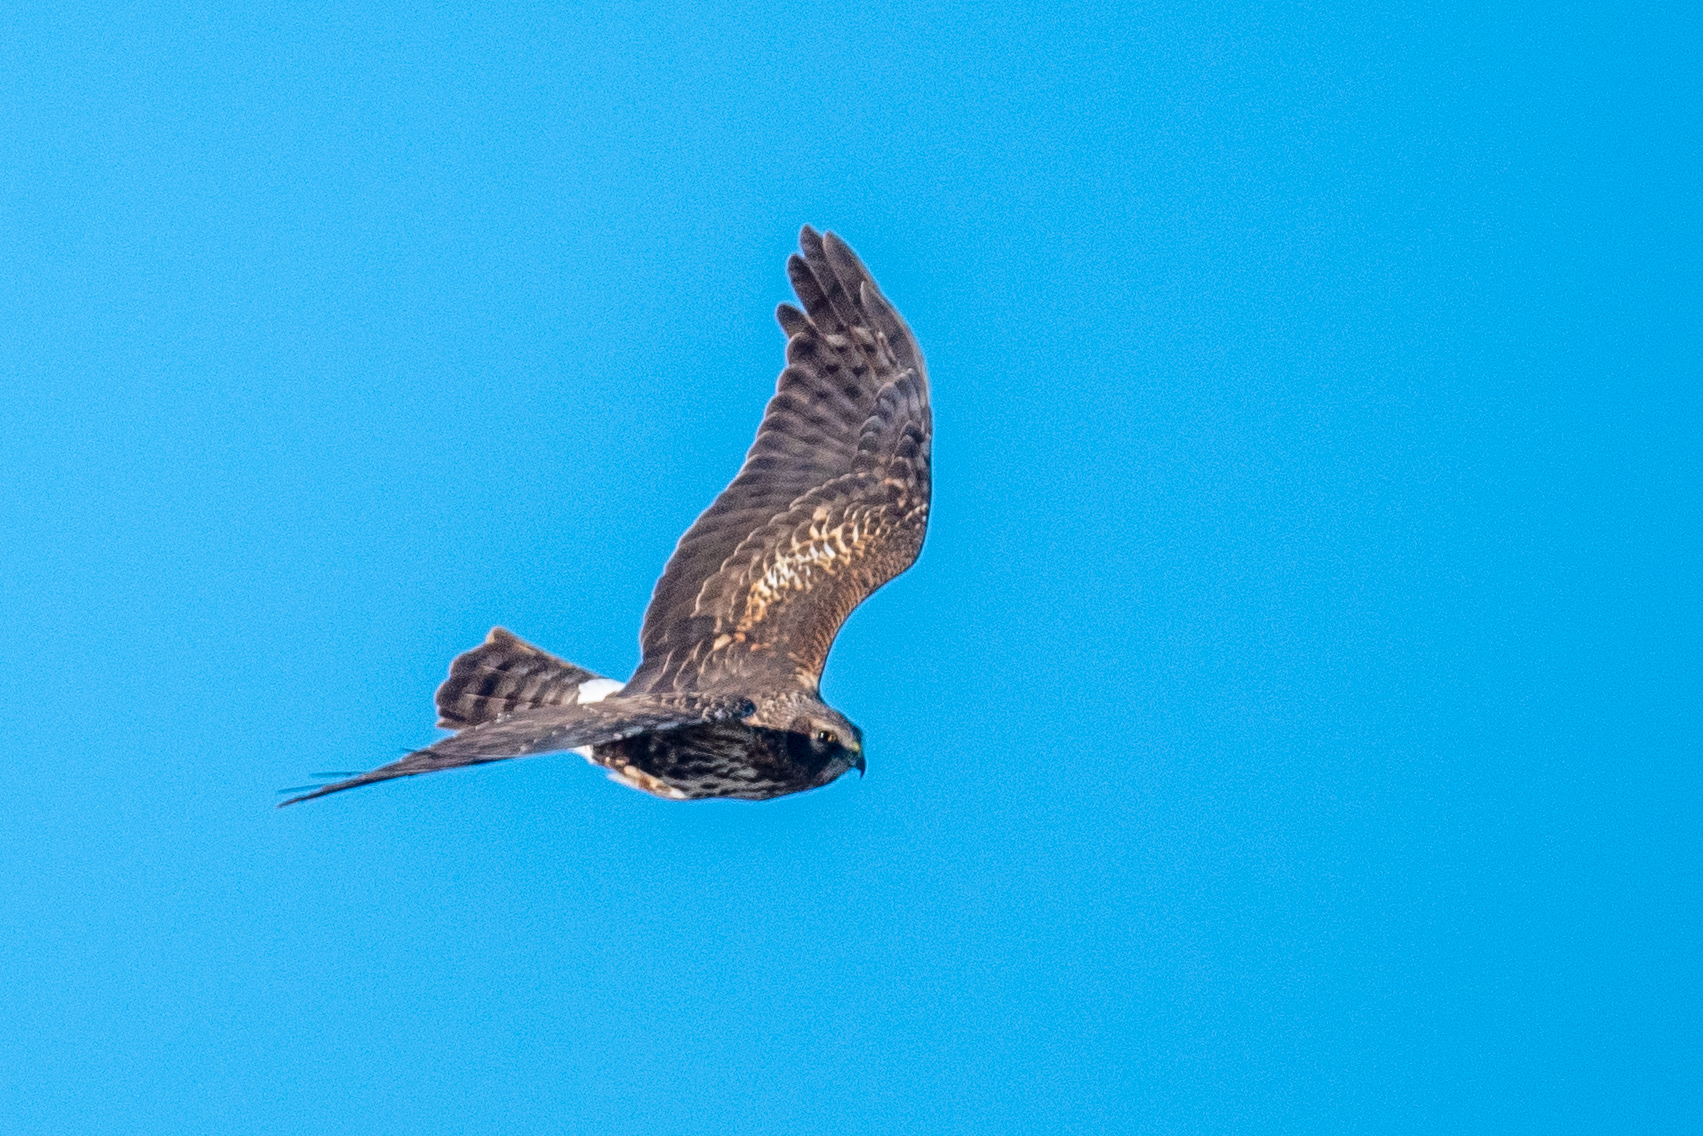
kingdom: Animalia
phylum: Chordata
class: Aves
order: Accipitriformes
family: Accipitridae
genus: Circus
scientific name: Circus cyaneus
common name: Hen harrier
